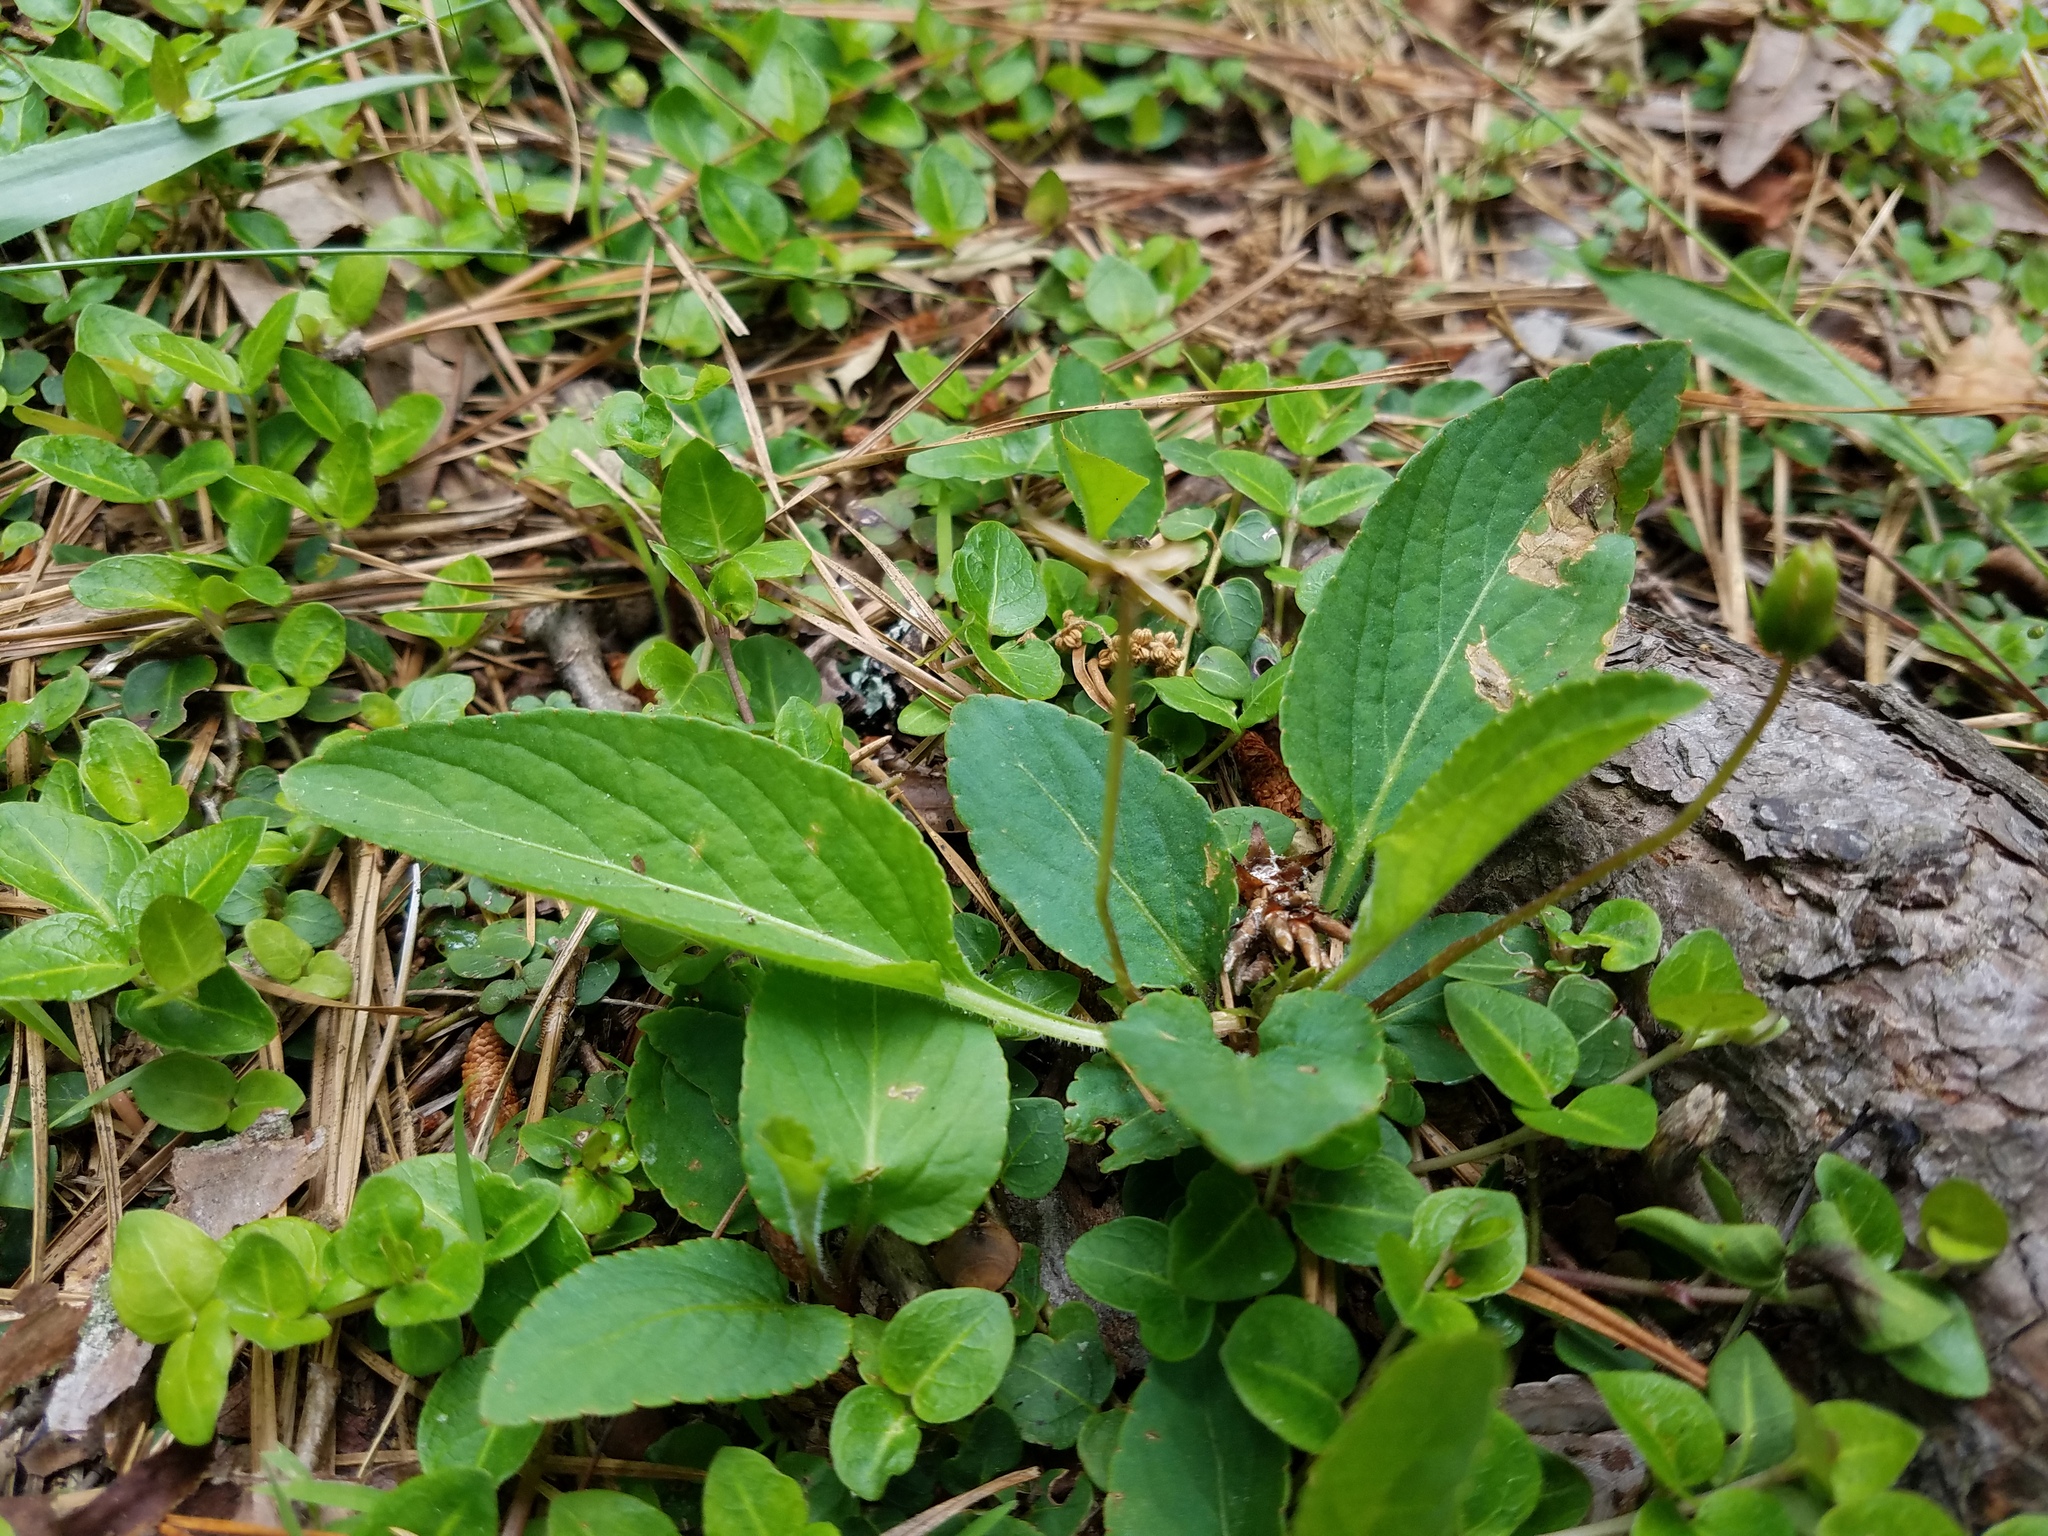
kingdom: Plantae
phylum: Tracheophyta
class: Magnoliopsida
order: Malpighiales
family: Violaceae
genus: Viola
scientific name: Viola primulifolia
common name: Primrose-leaf violet
